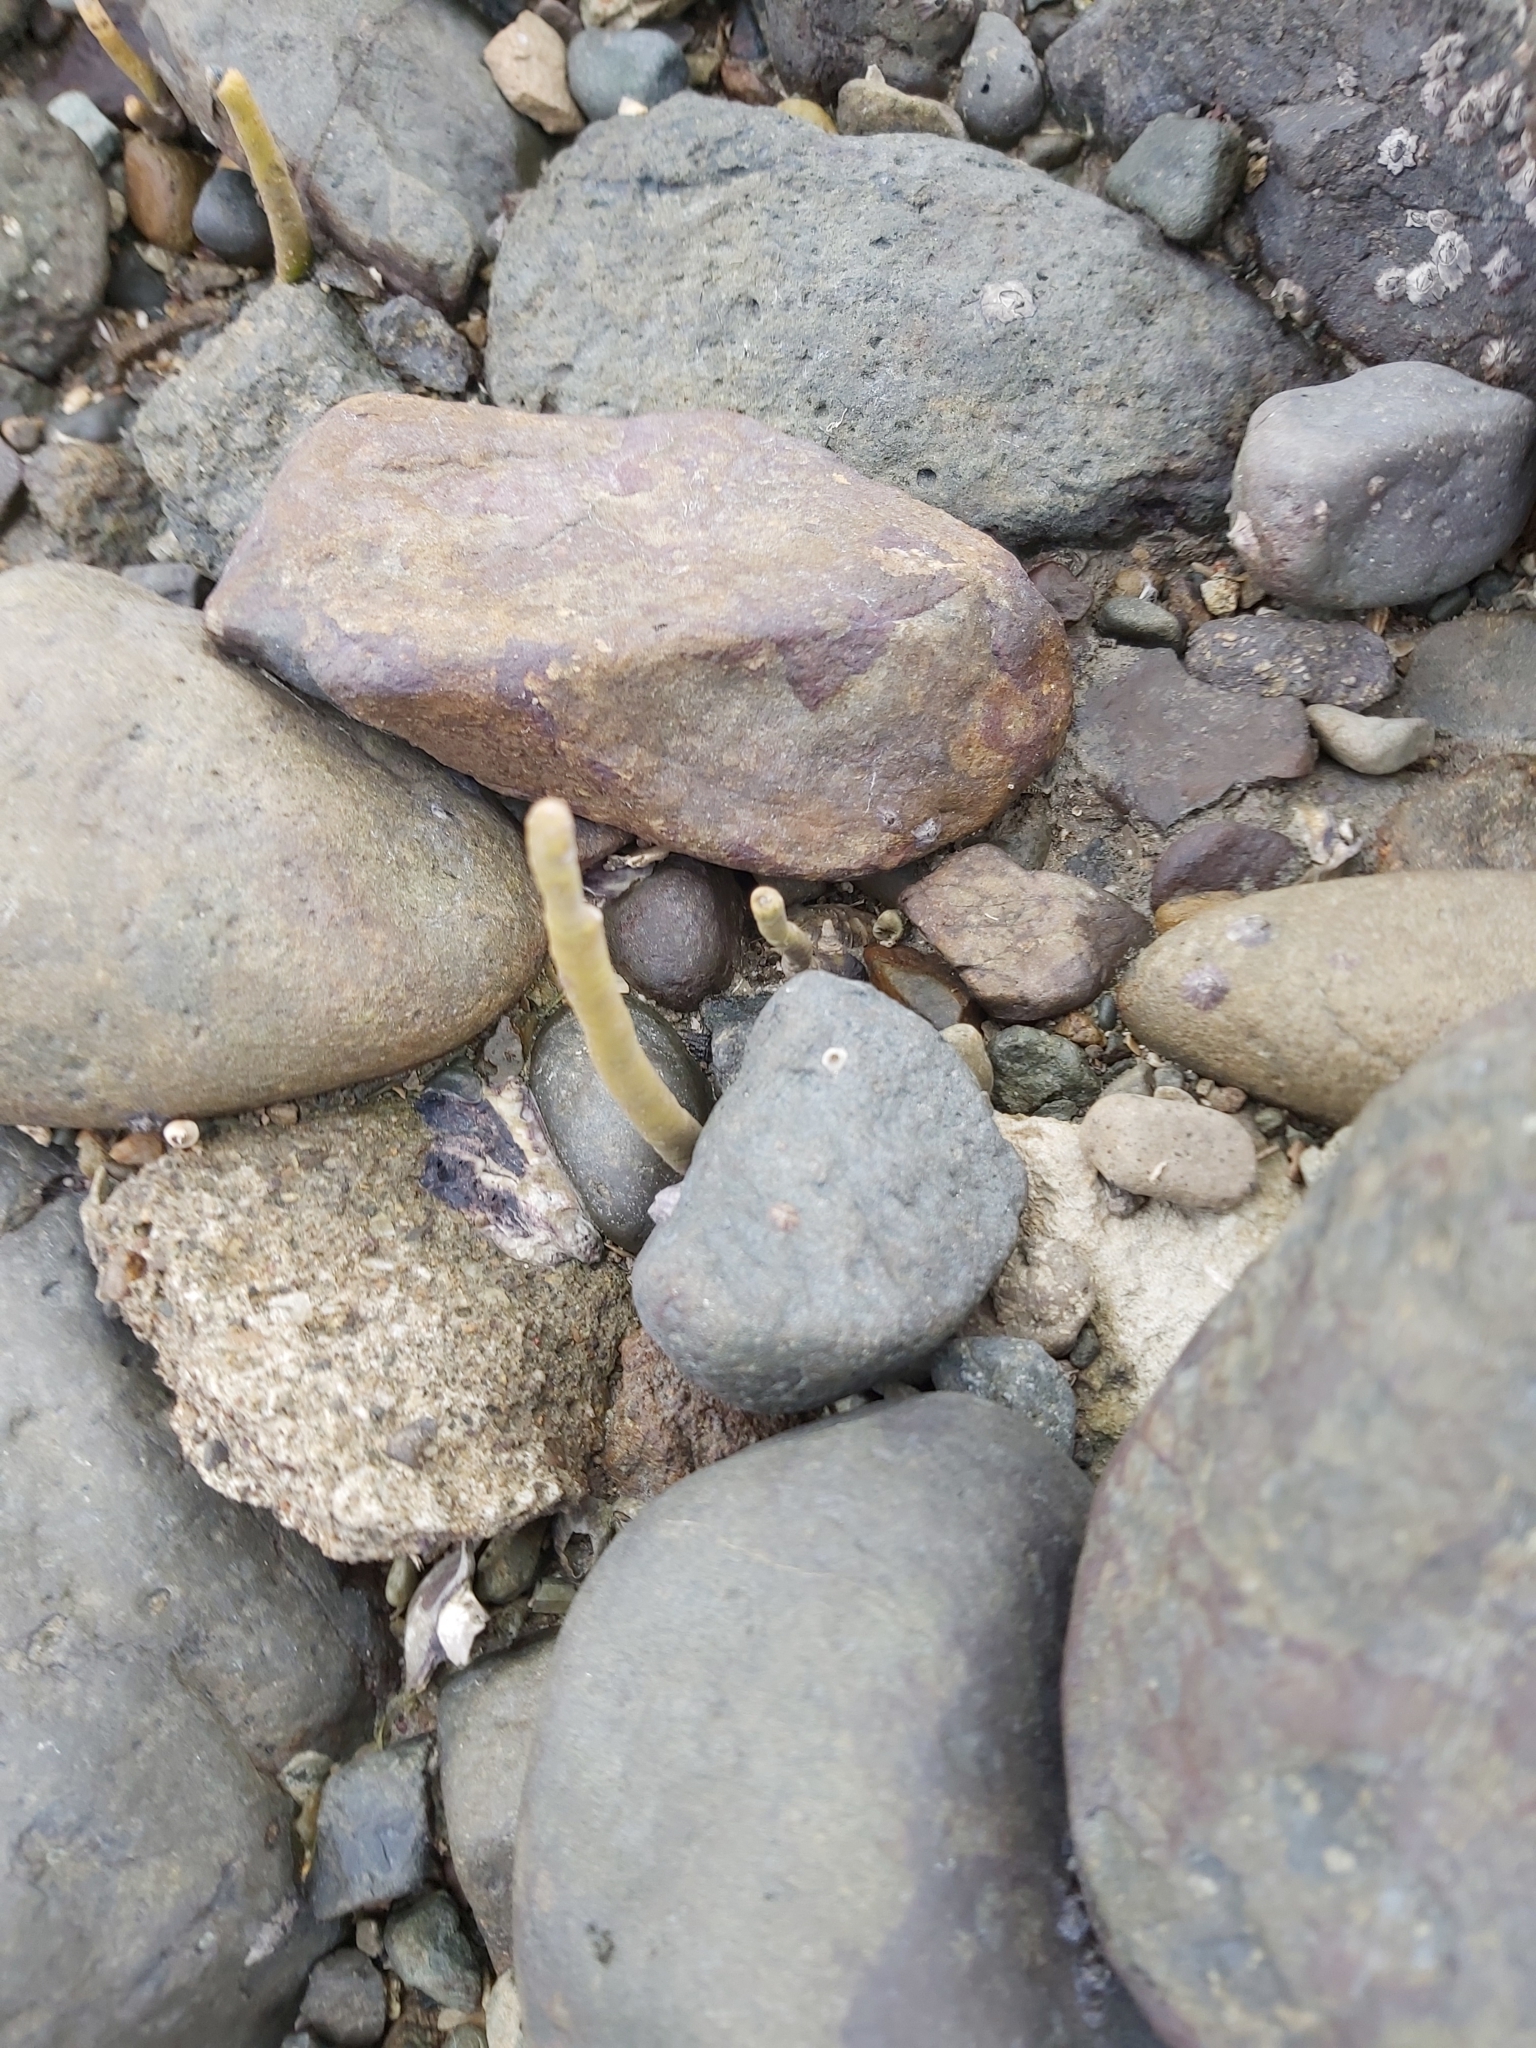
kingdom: Plantae
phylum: Tracheophyta
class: Magnoliopsida
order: Lamiales
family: Acanthaceae
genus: Avicennia
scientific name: Avicennia marina
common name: Gray mangrove
